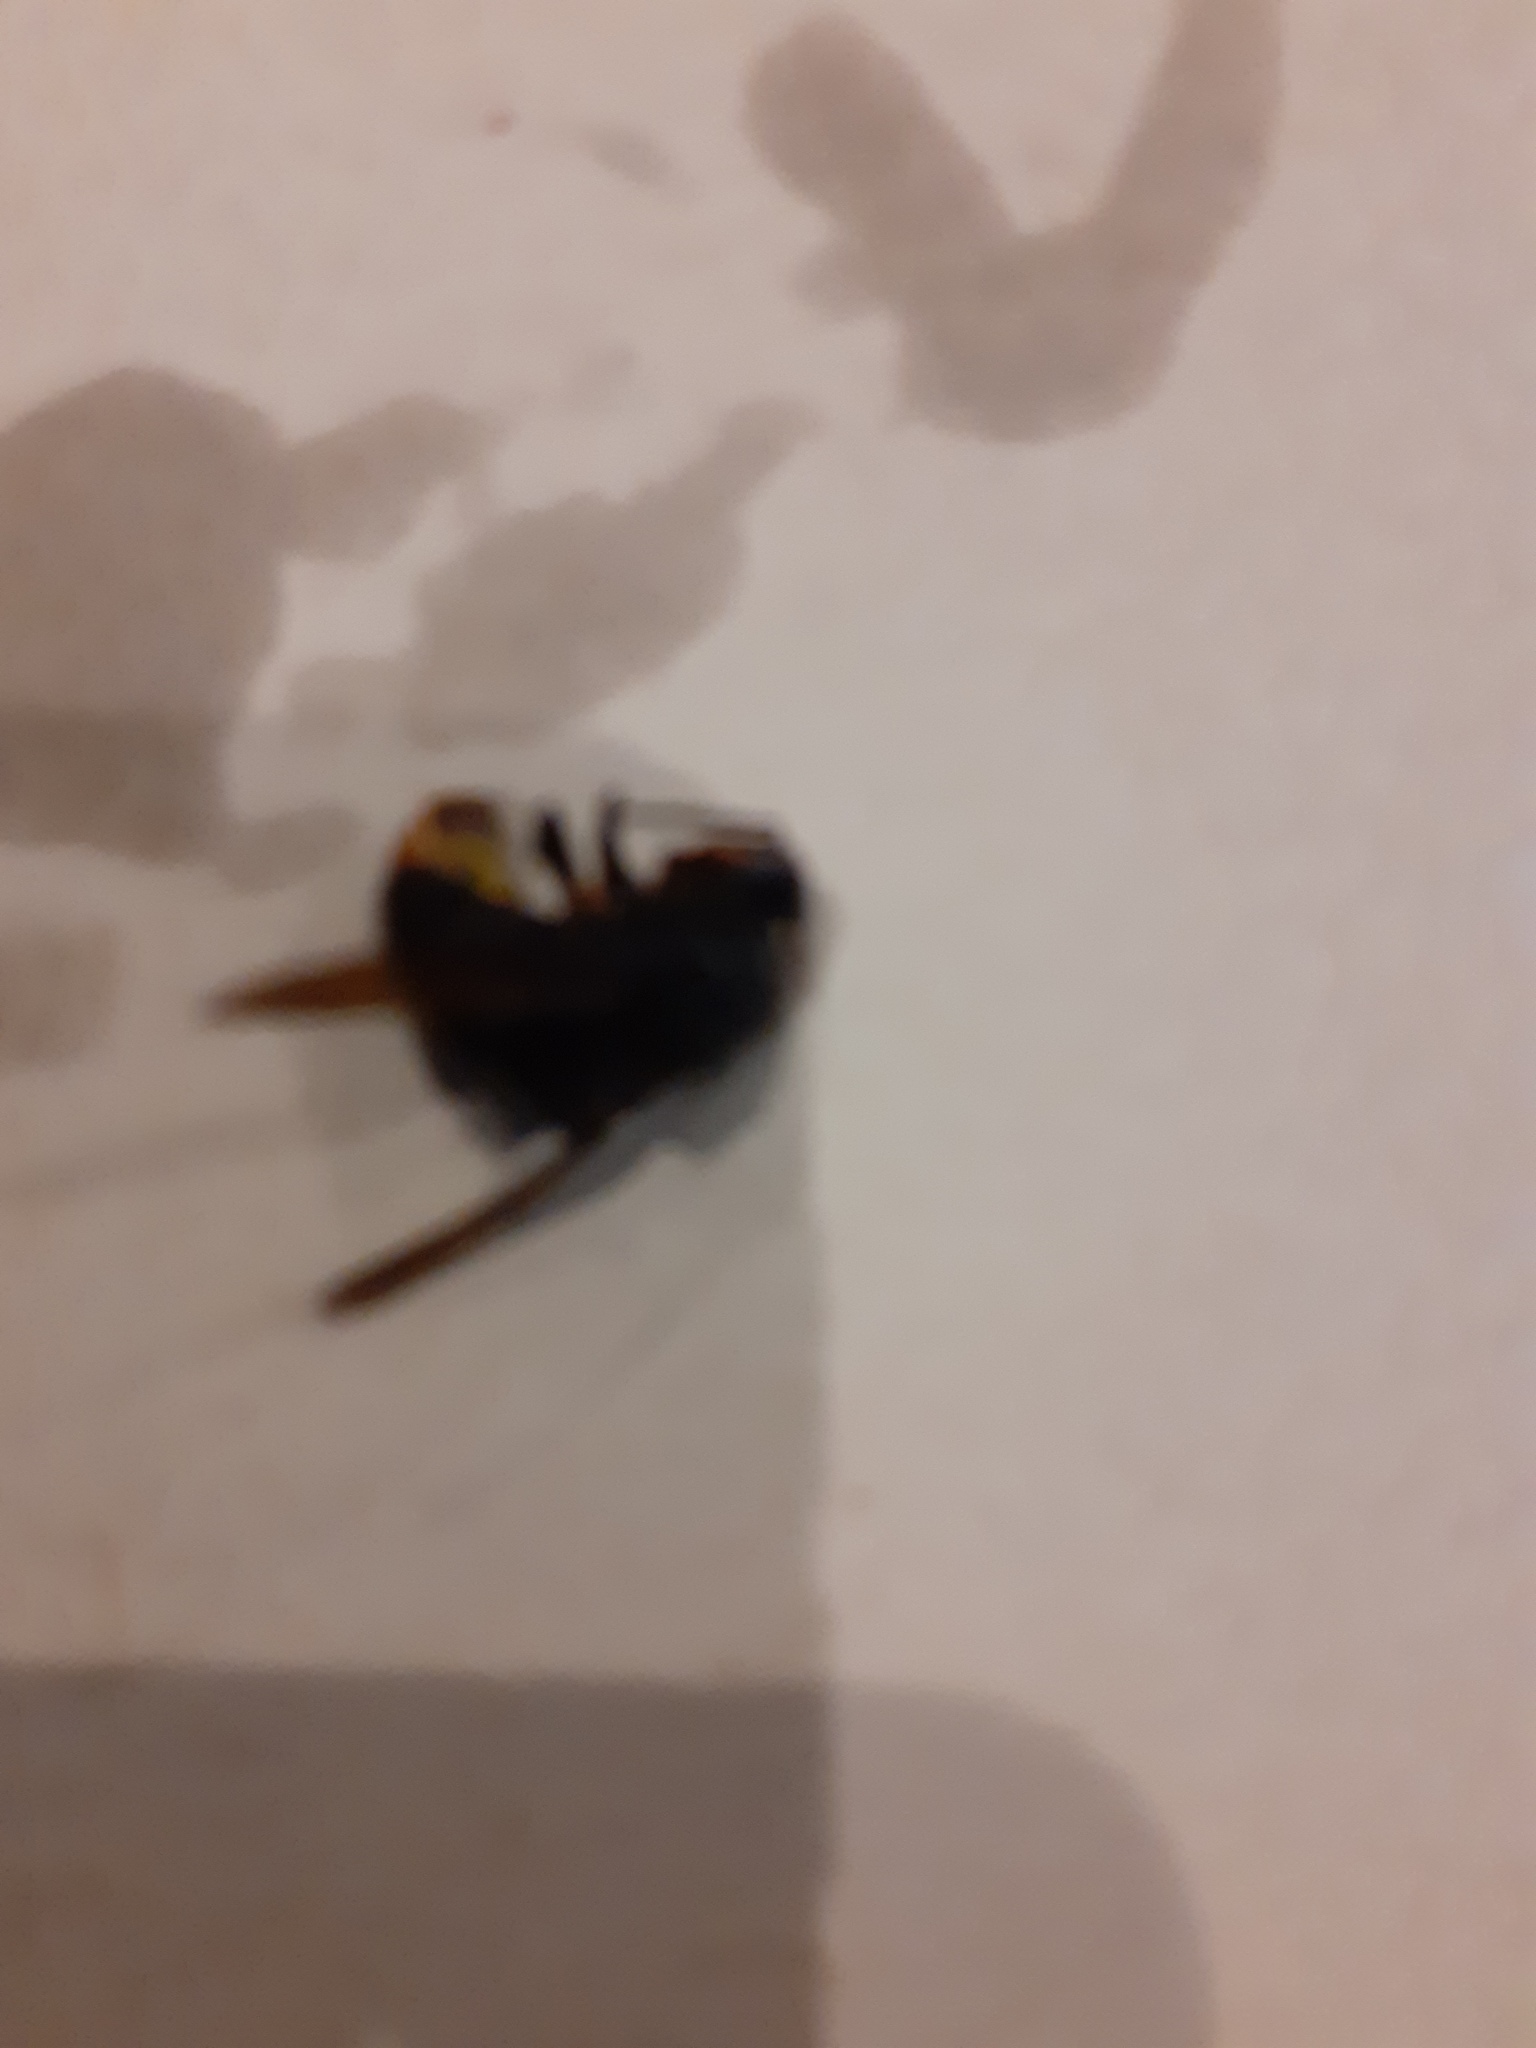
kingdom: Animalia
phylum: Arthropoda
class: Insecta
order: Hymenoptera
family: Vespidae
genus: Vespa
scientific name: Vespa velutina
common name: Asian hornet
